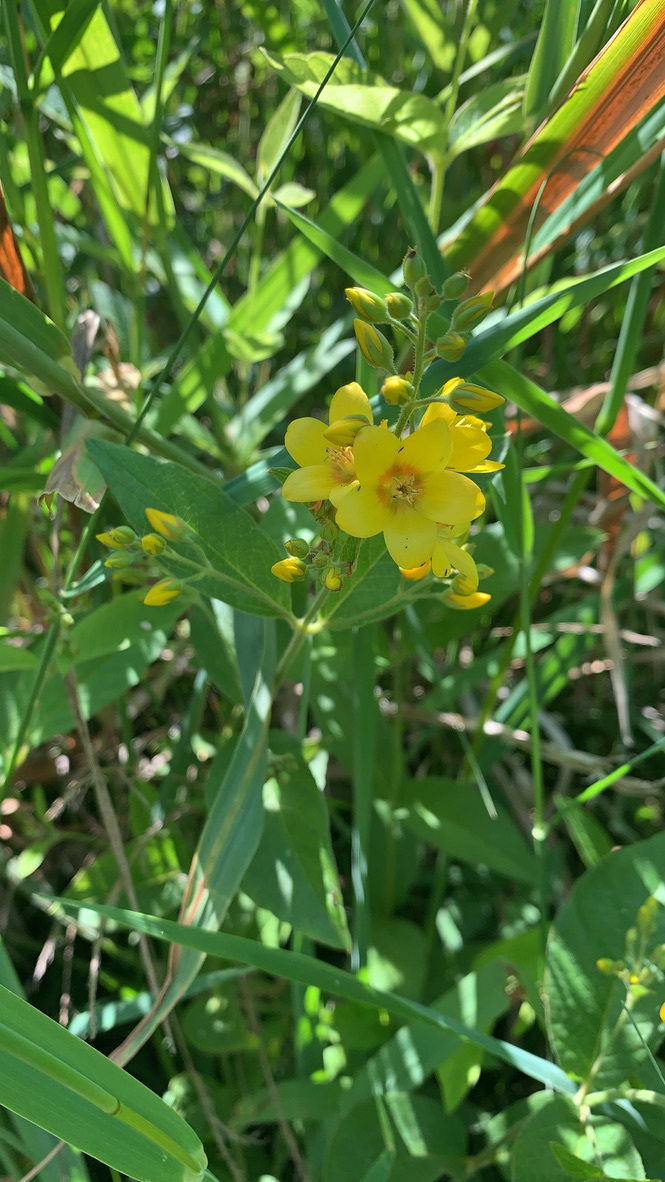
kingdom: Plantae
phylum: Tracheophyta
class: Magnoliopsida
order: Ericales
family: Primulaceae
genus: Lysimachia
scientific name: Lysimachia vulgaris
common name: Yellow loosestrife
